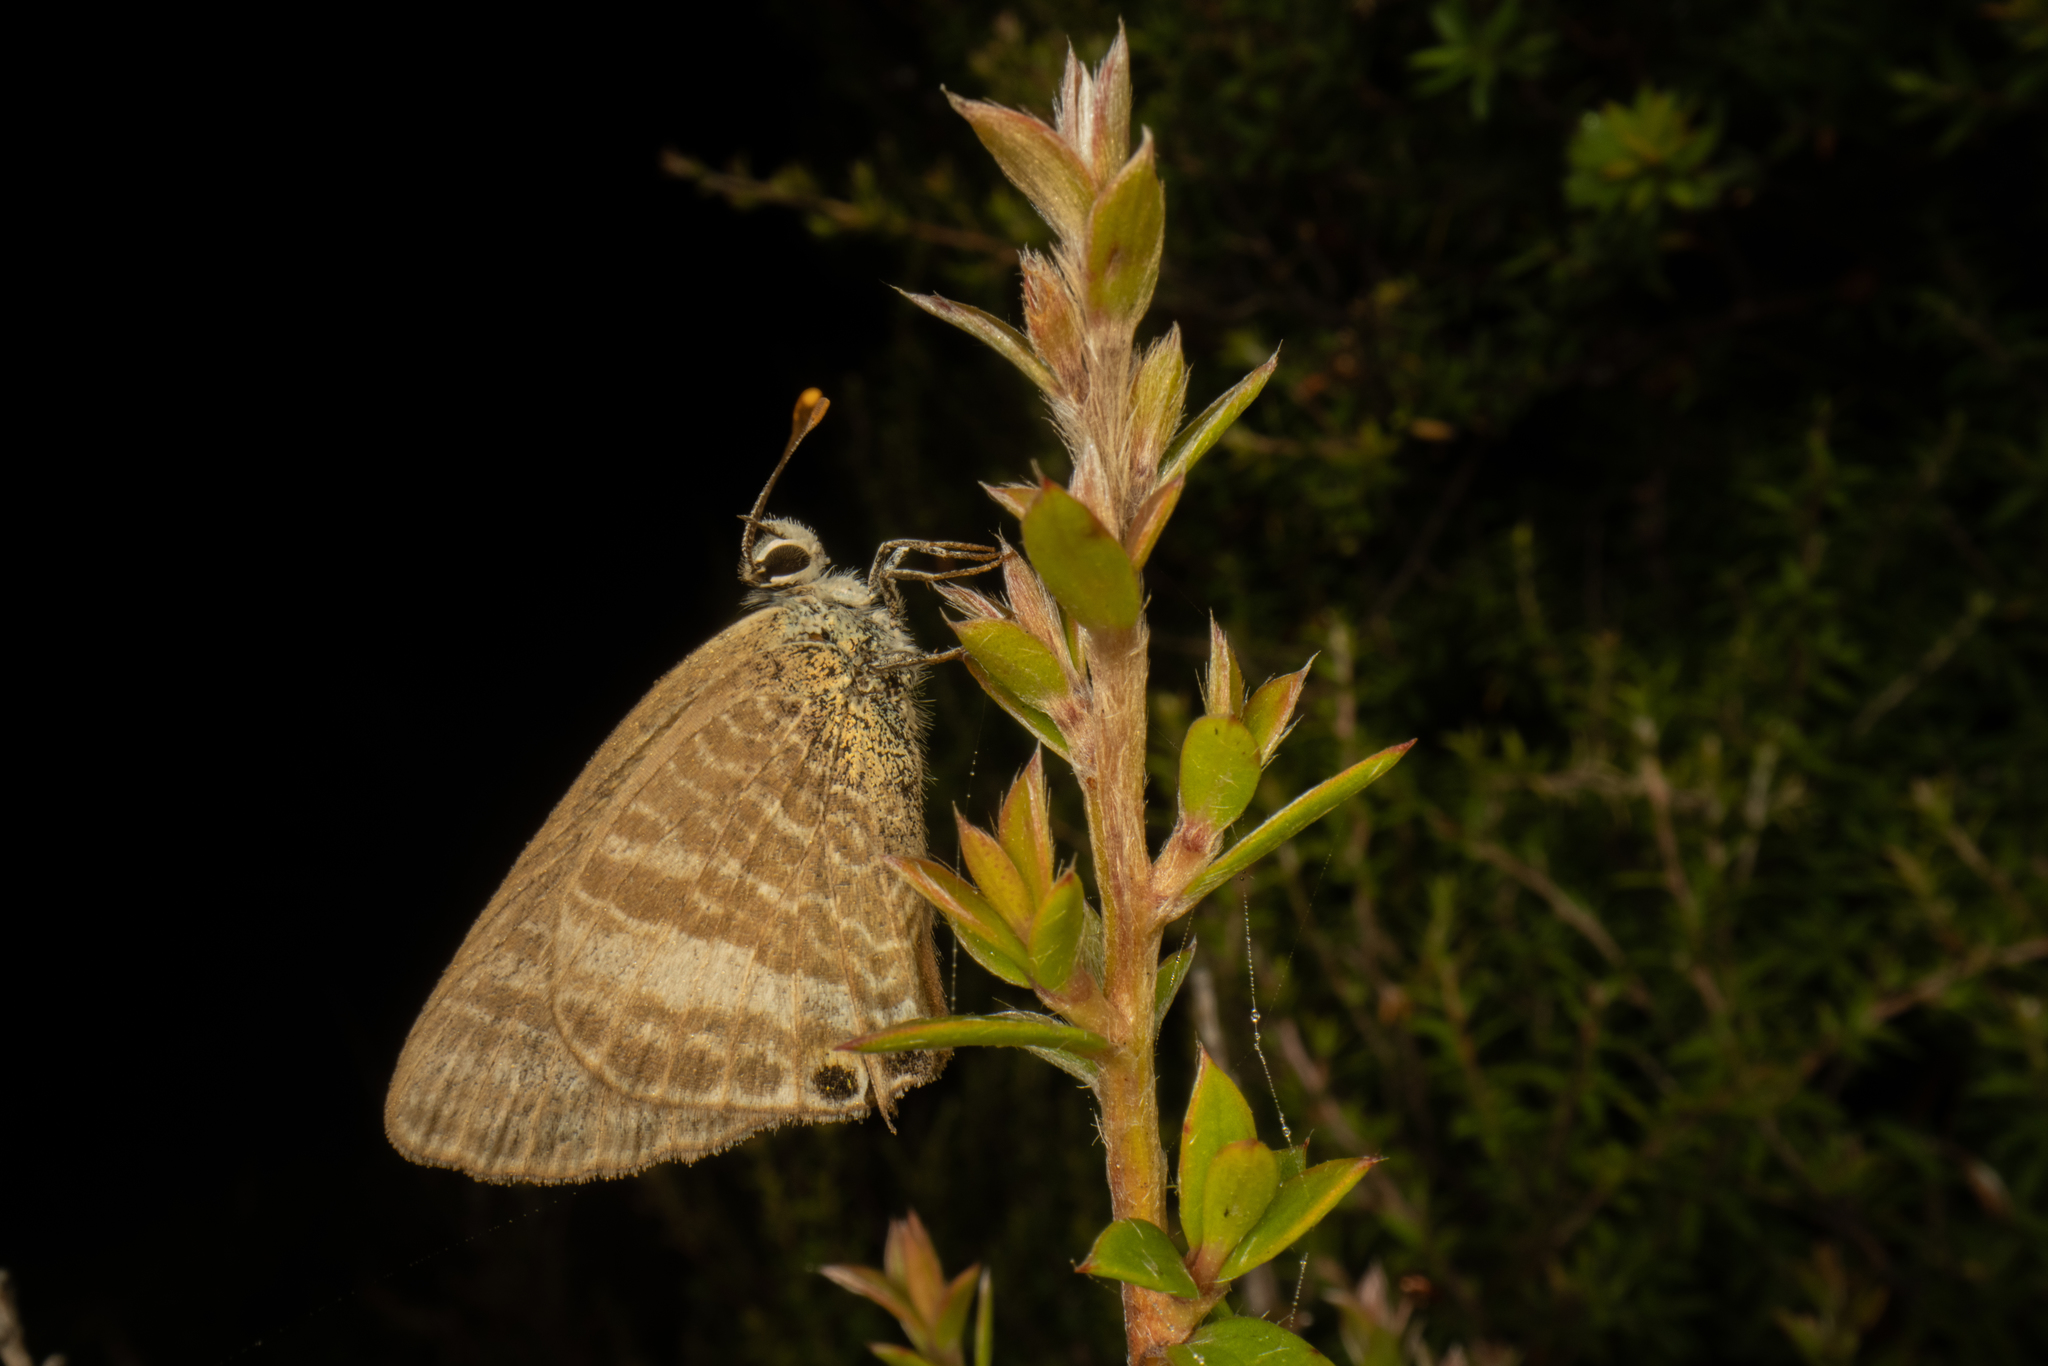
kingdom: Animalia
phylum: Arthropoda
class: Insecta
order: Lepidoptera
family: Lycaenidae
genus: Lampides
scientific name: Lampides boeticus
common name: Long-tailed blue
